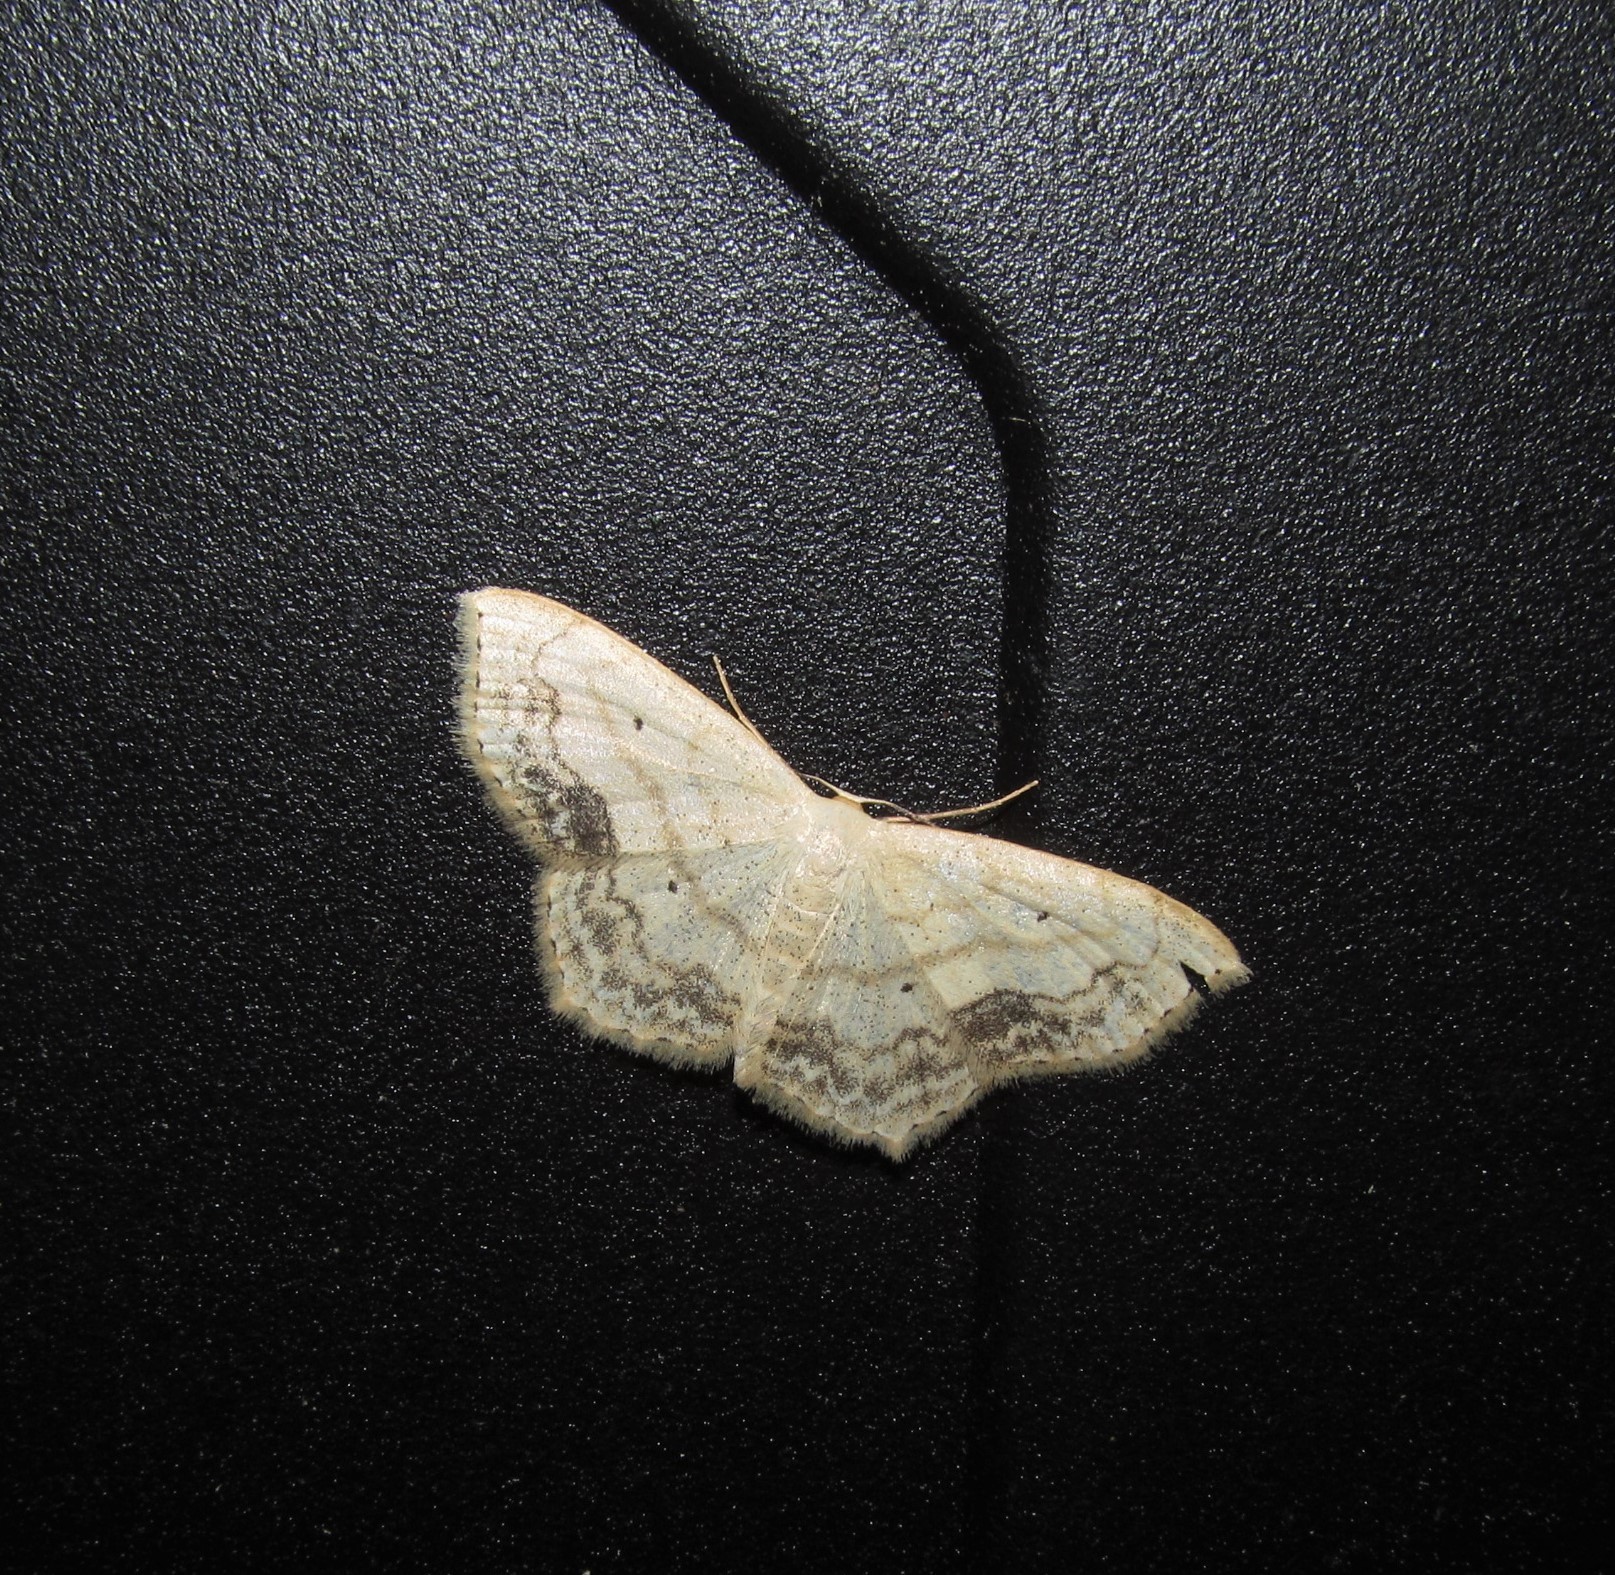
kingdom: Animalia
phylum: Arthropoda
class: Insecta
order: Lepidoptera
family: Geometridae
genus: Scopula
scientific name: Scopula limboundata
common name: Large lace border
